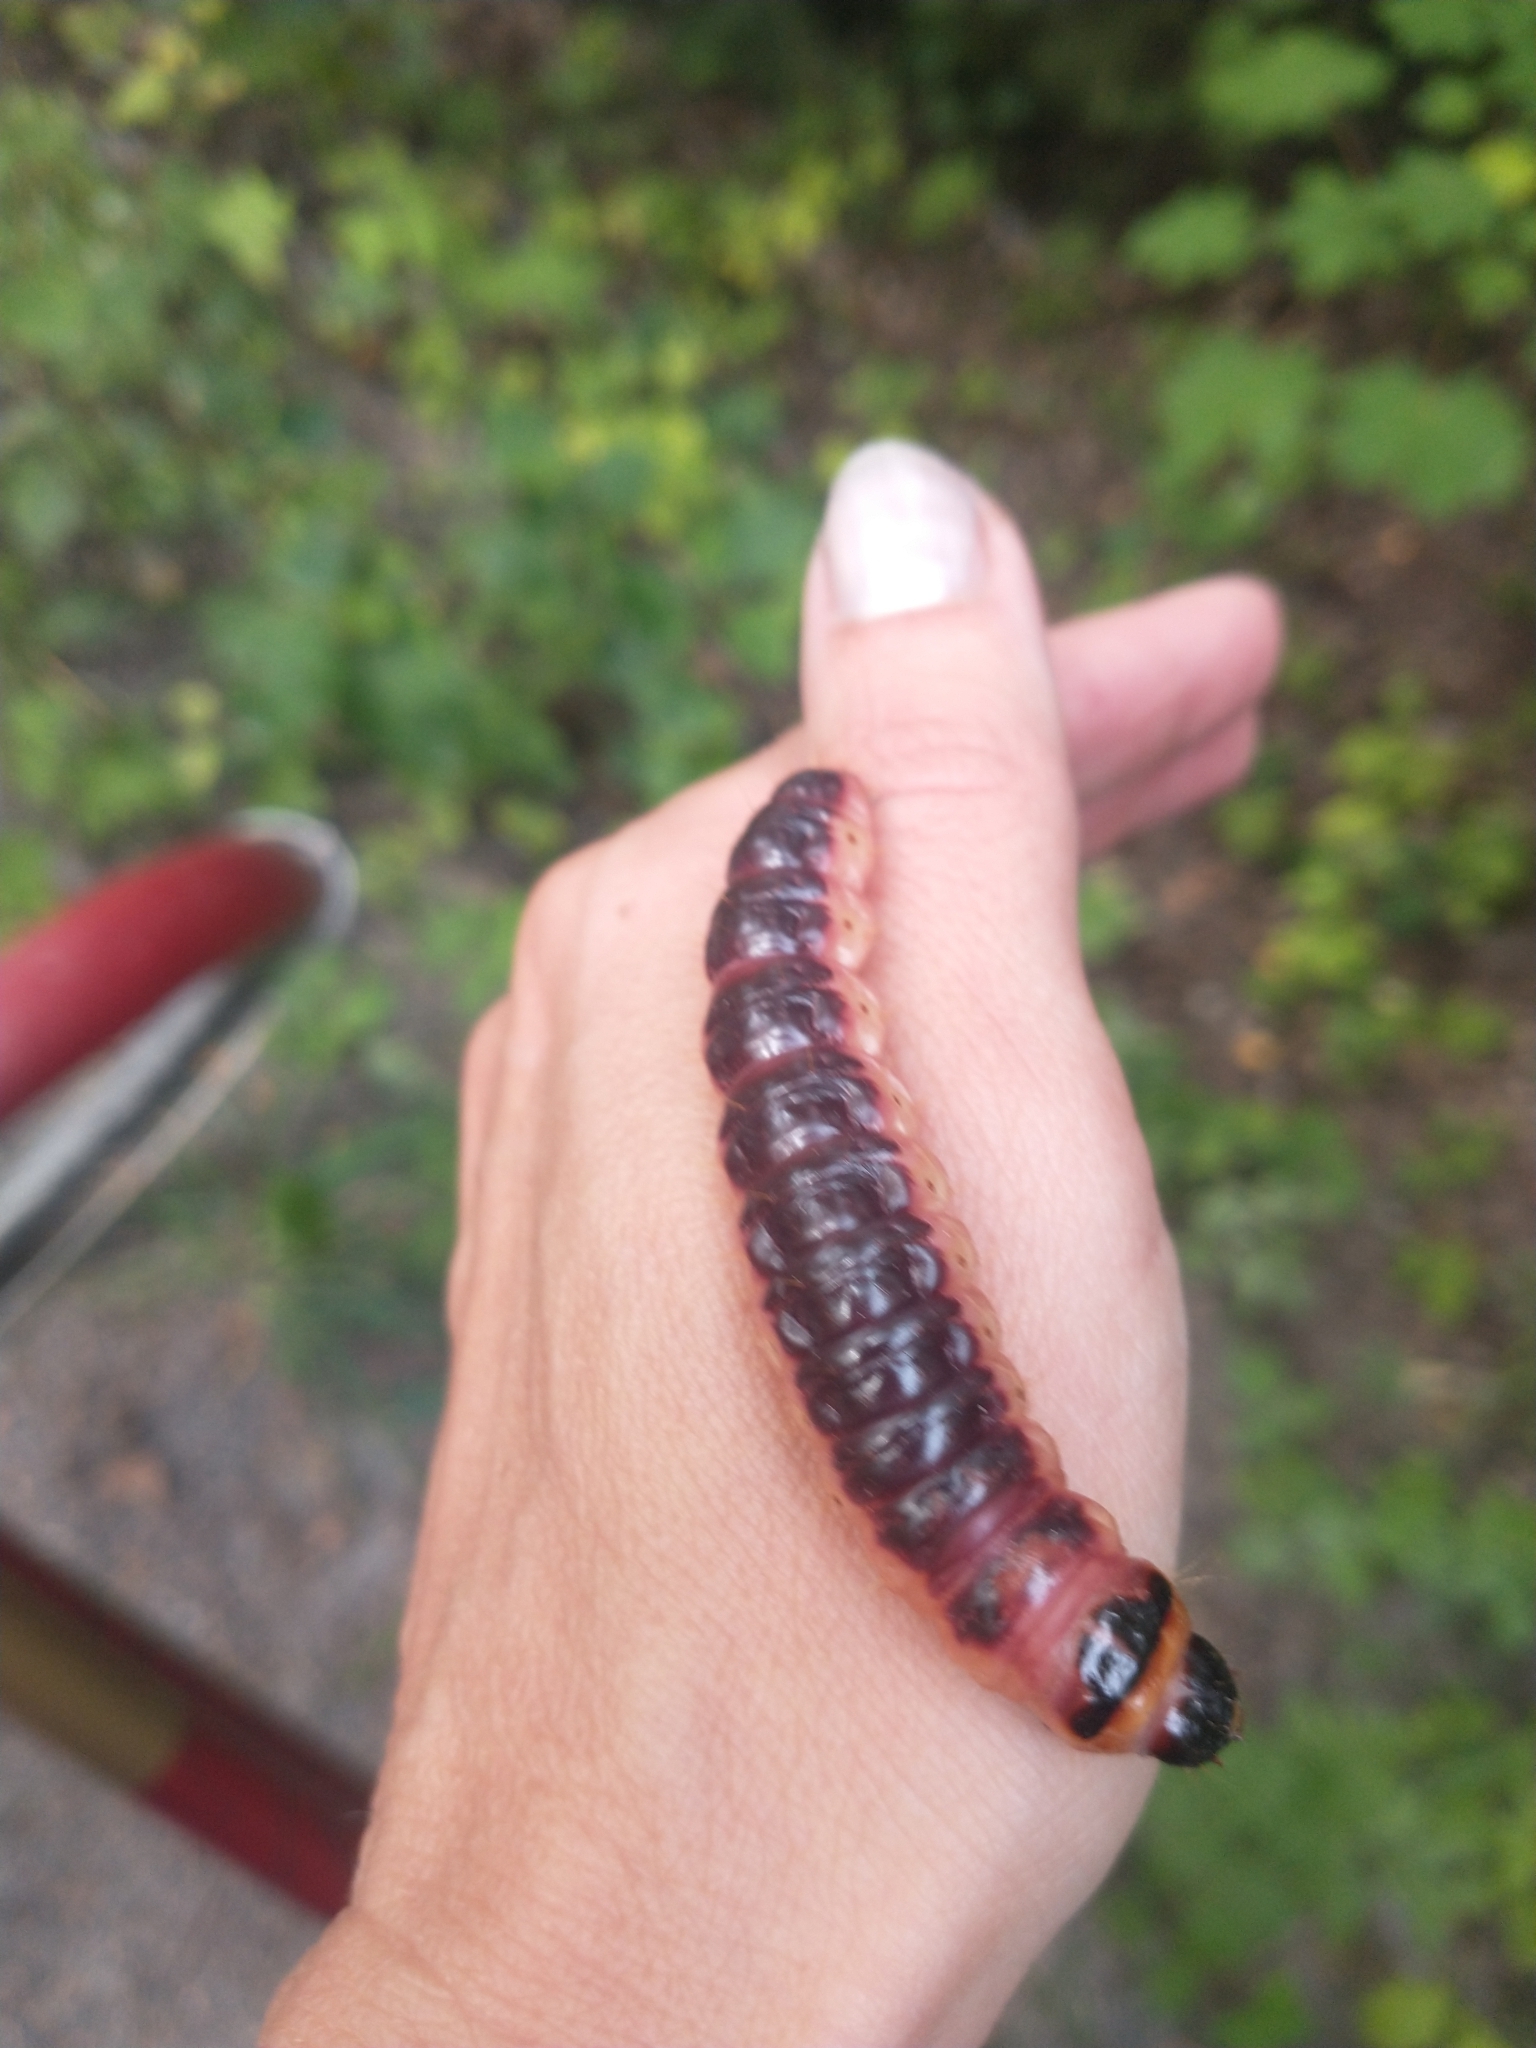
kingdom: Animalia
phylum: Arthropoda
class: Insecta
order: Lepidoptera
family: Cossidae
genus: Cossus
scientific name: Cossus cossus
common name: Goat moth
